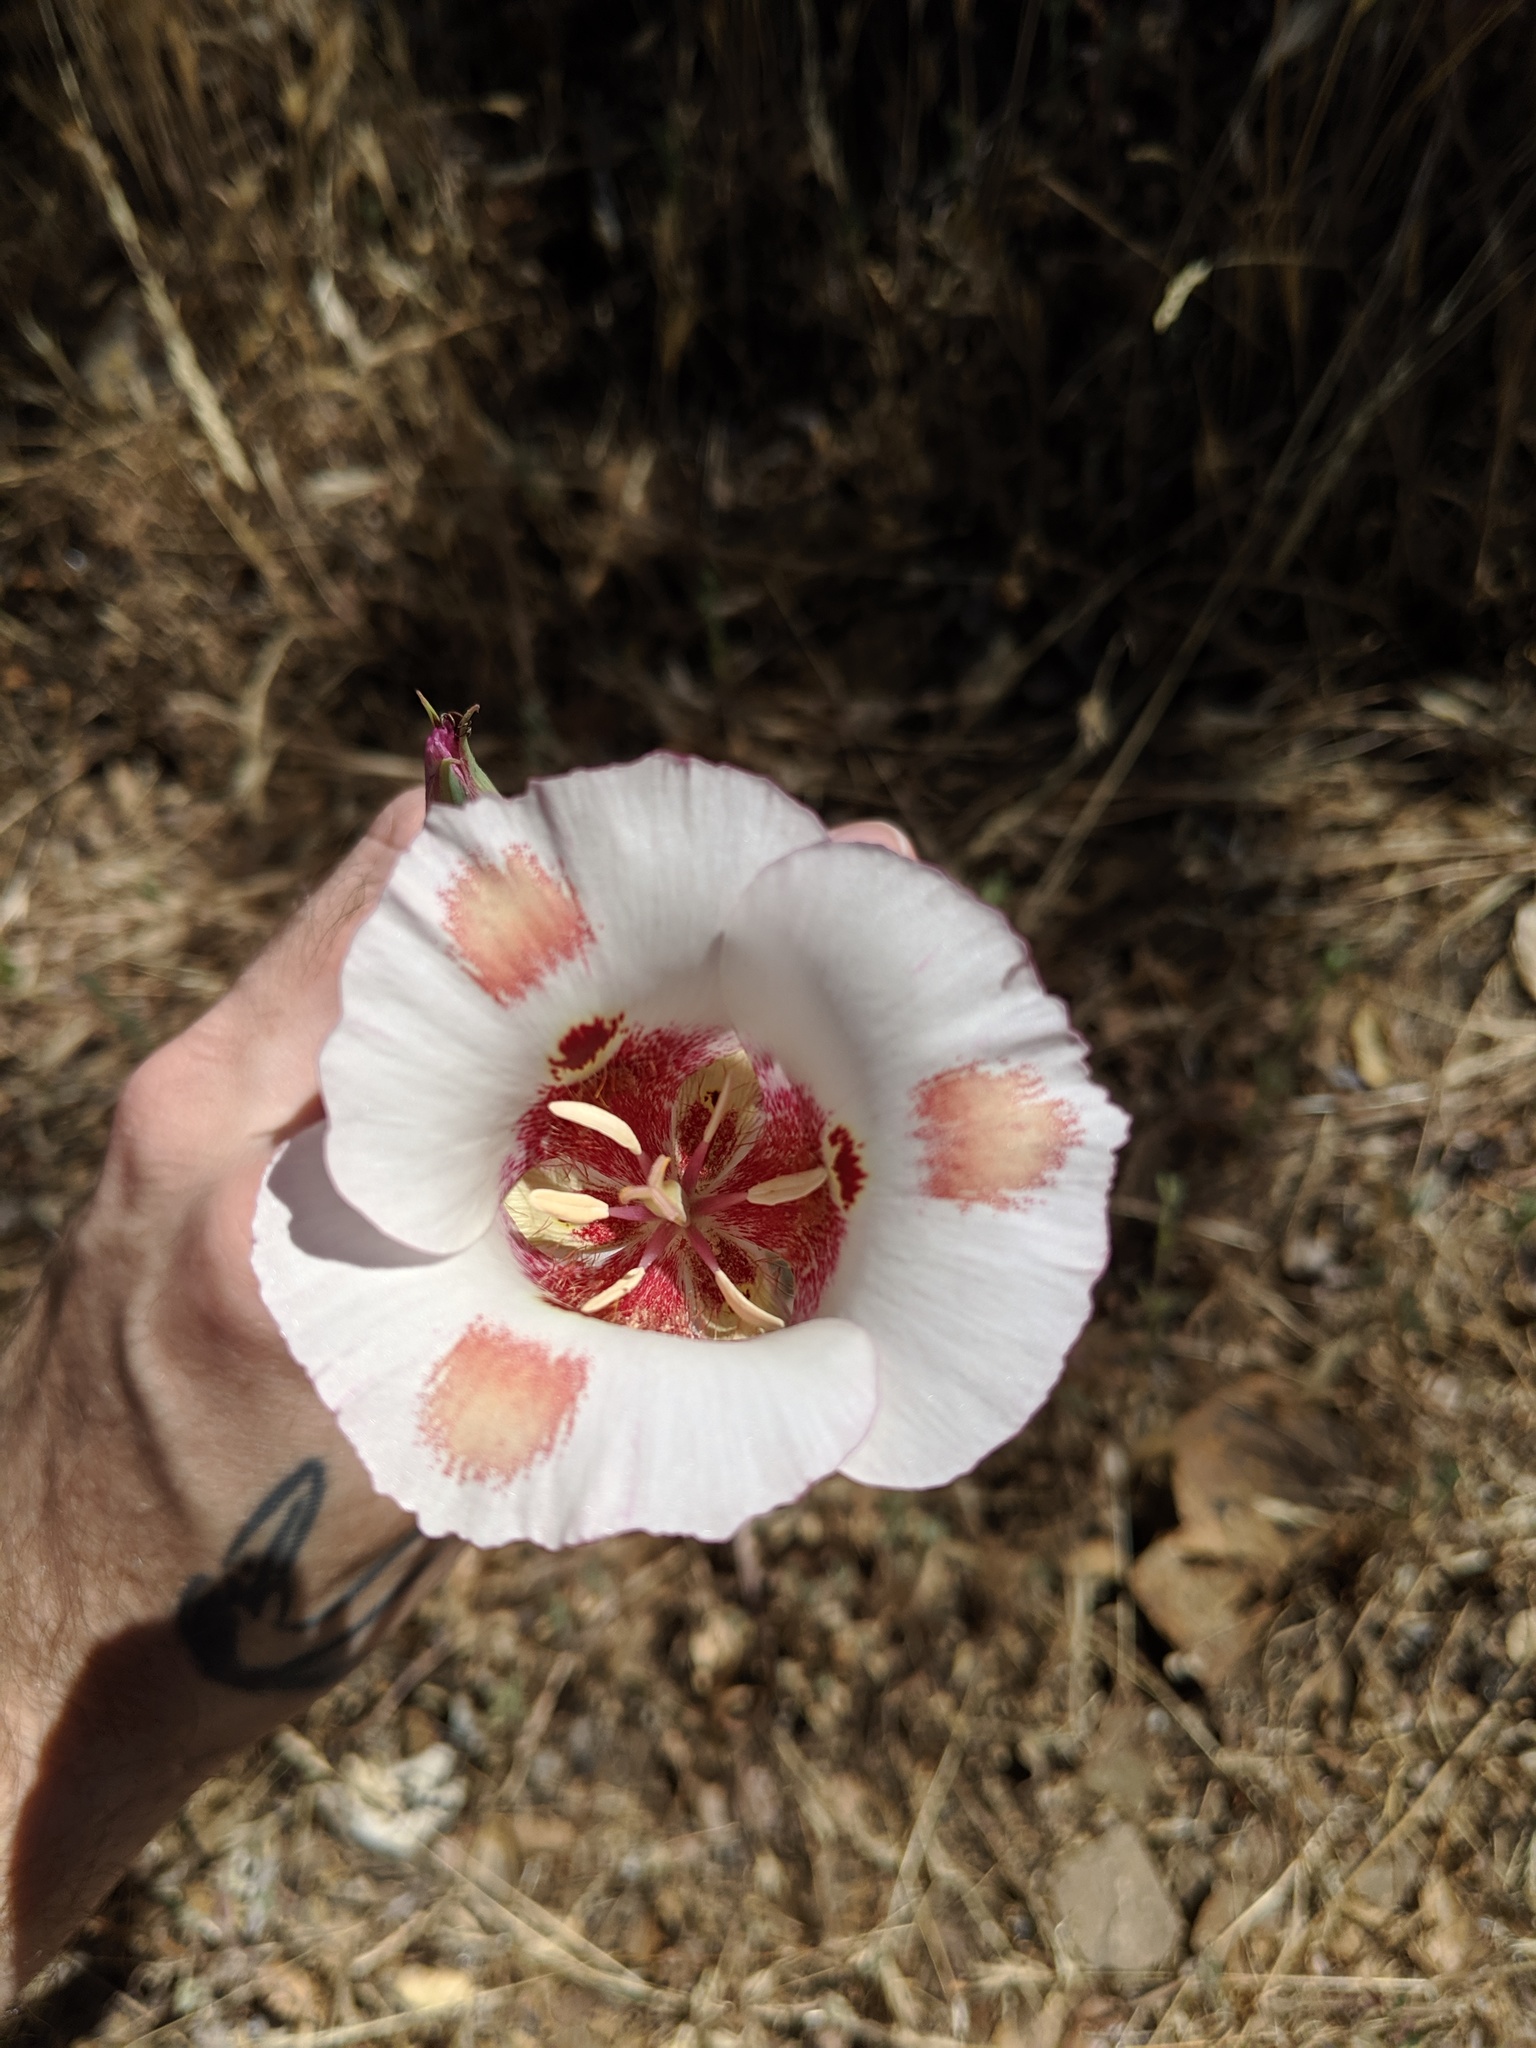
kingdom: Plantae
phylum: Tracheophyta
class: Liliopsida
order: Liliales
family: Liliaceae
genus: Calochortus
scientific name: Calochortus venustus
